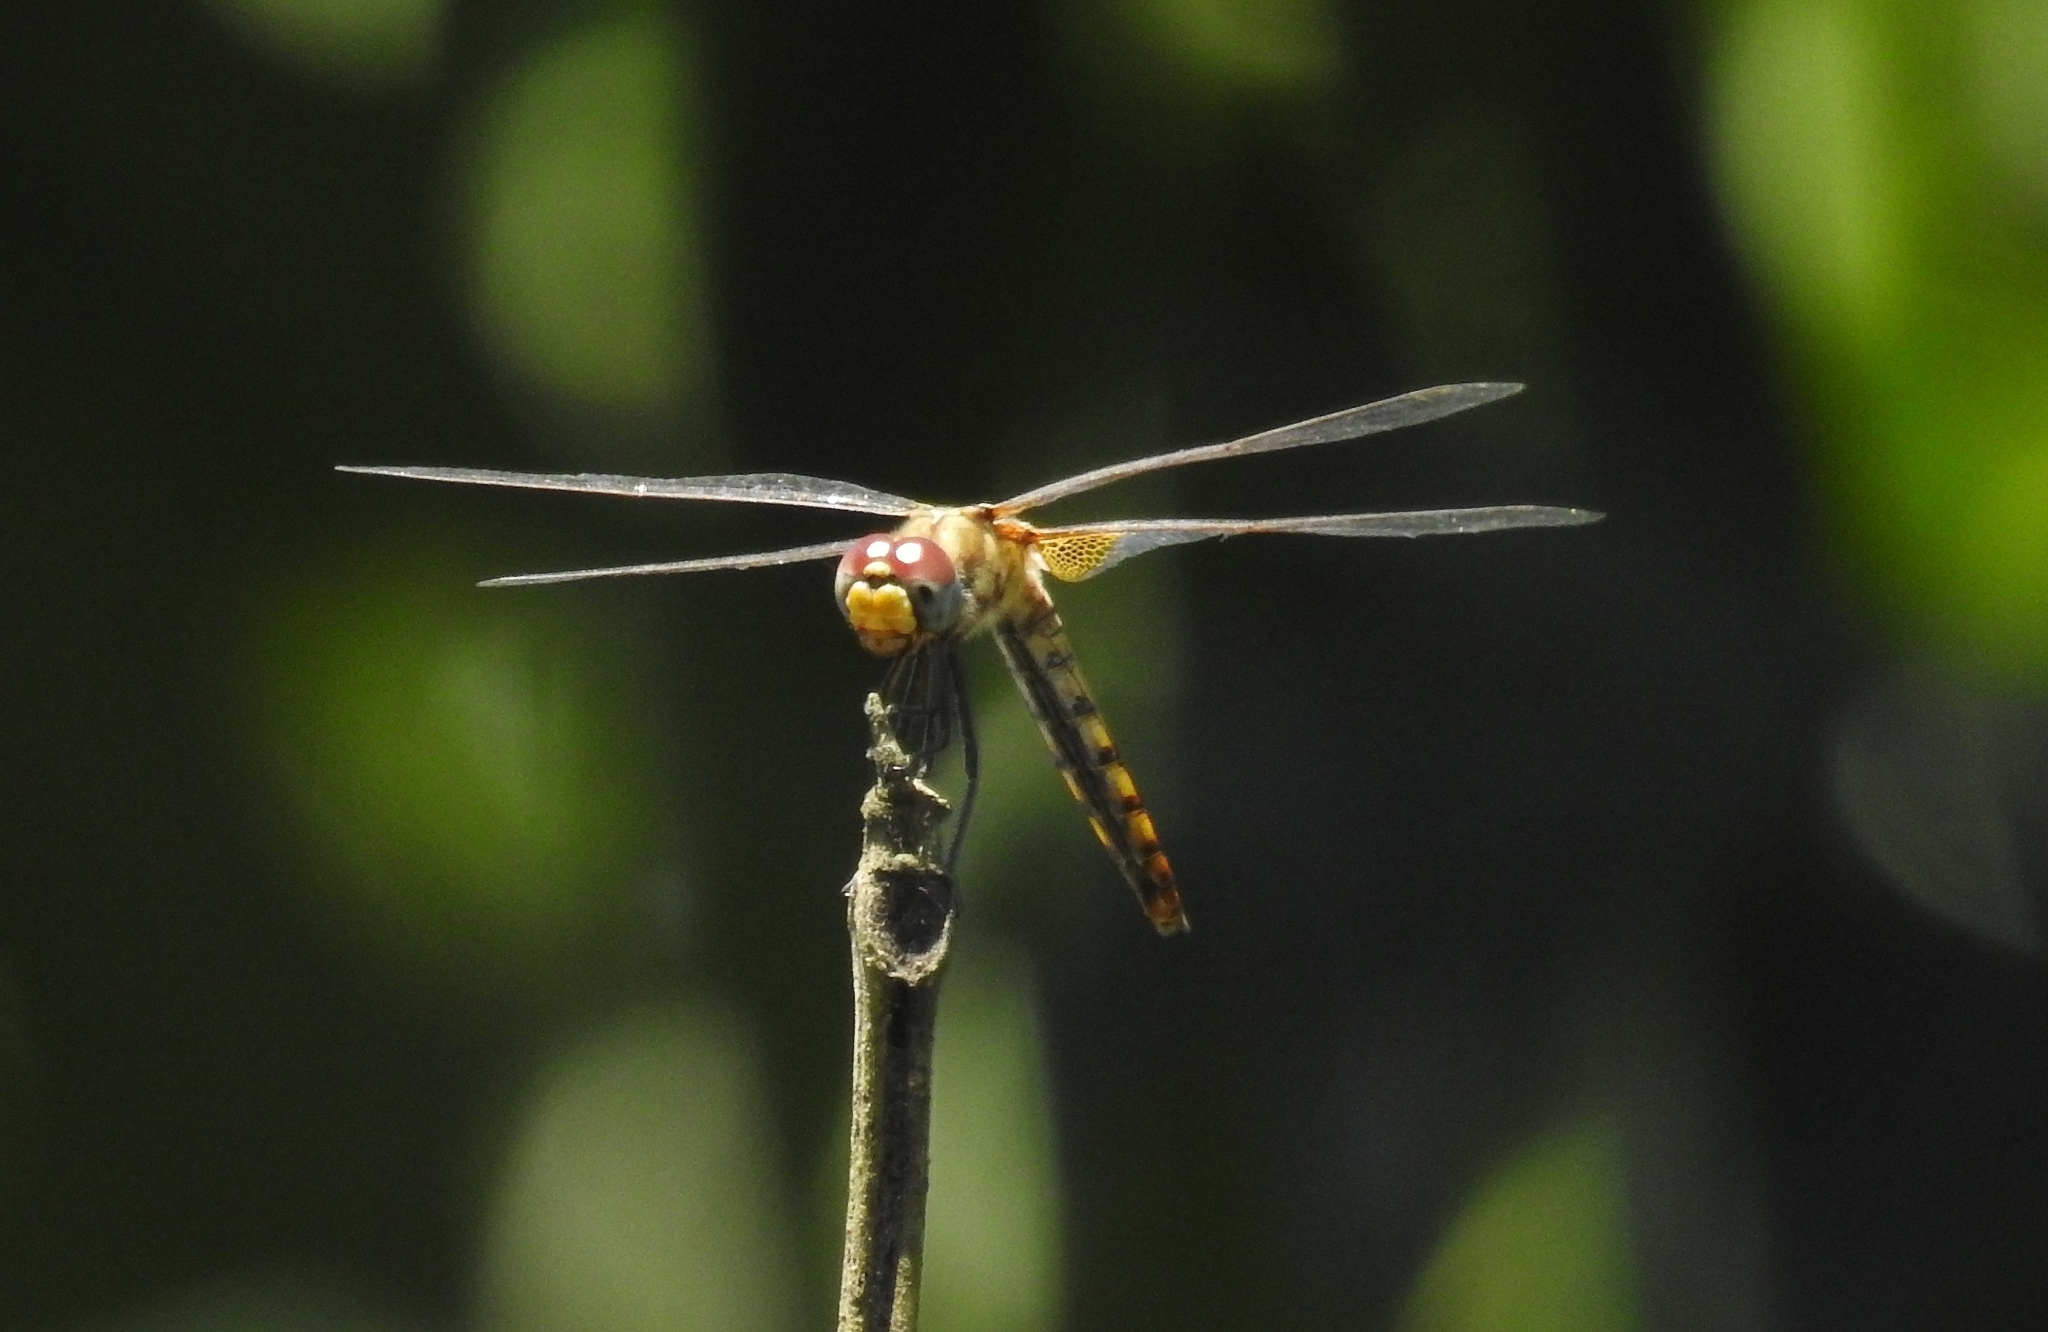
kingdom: Animalia
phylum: Arthropoda
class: Insecta
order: Odonata
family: Libellulidae
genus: Urothemis
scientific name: Urothemis signata
